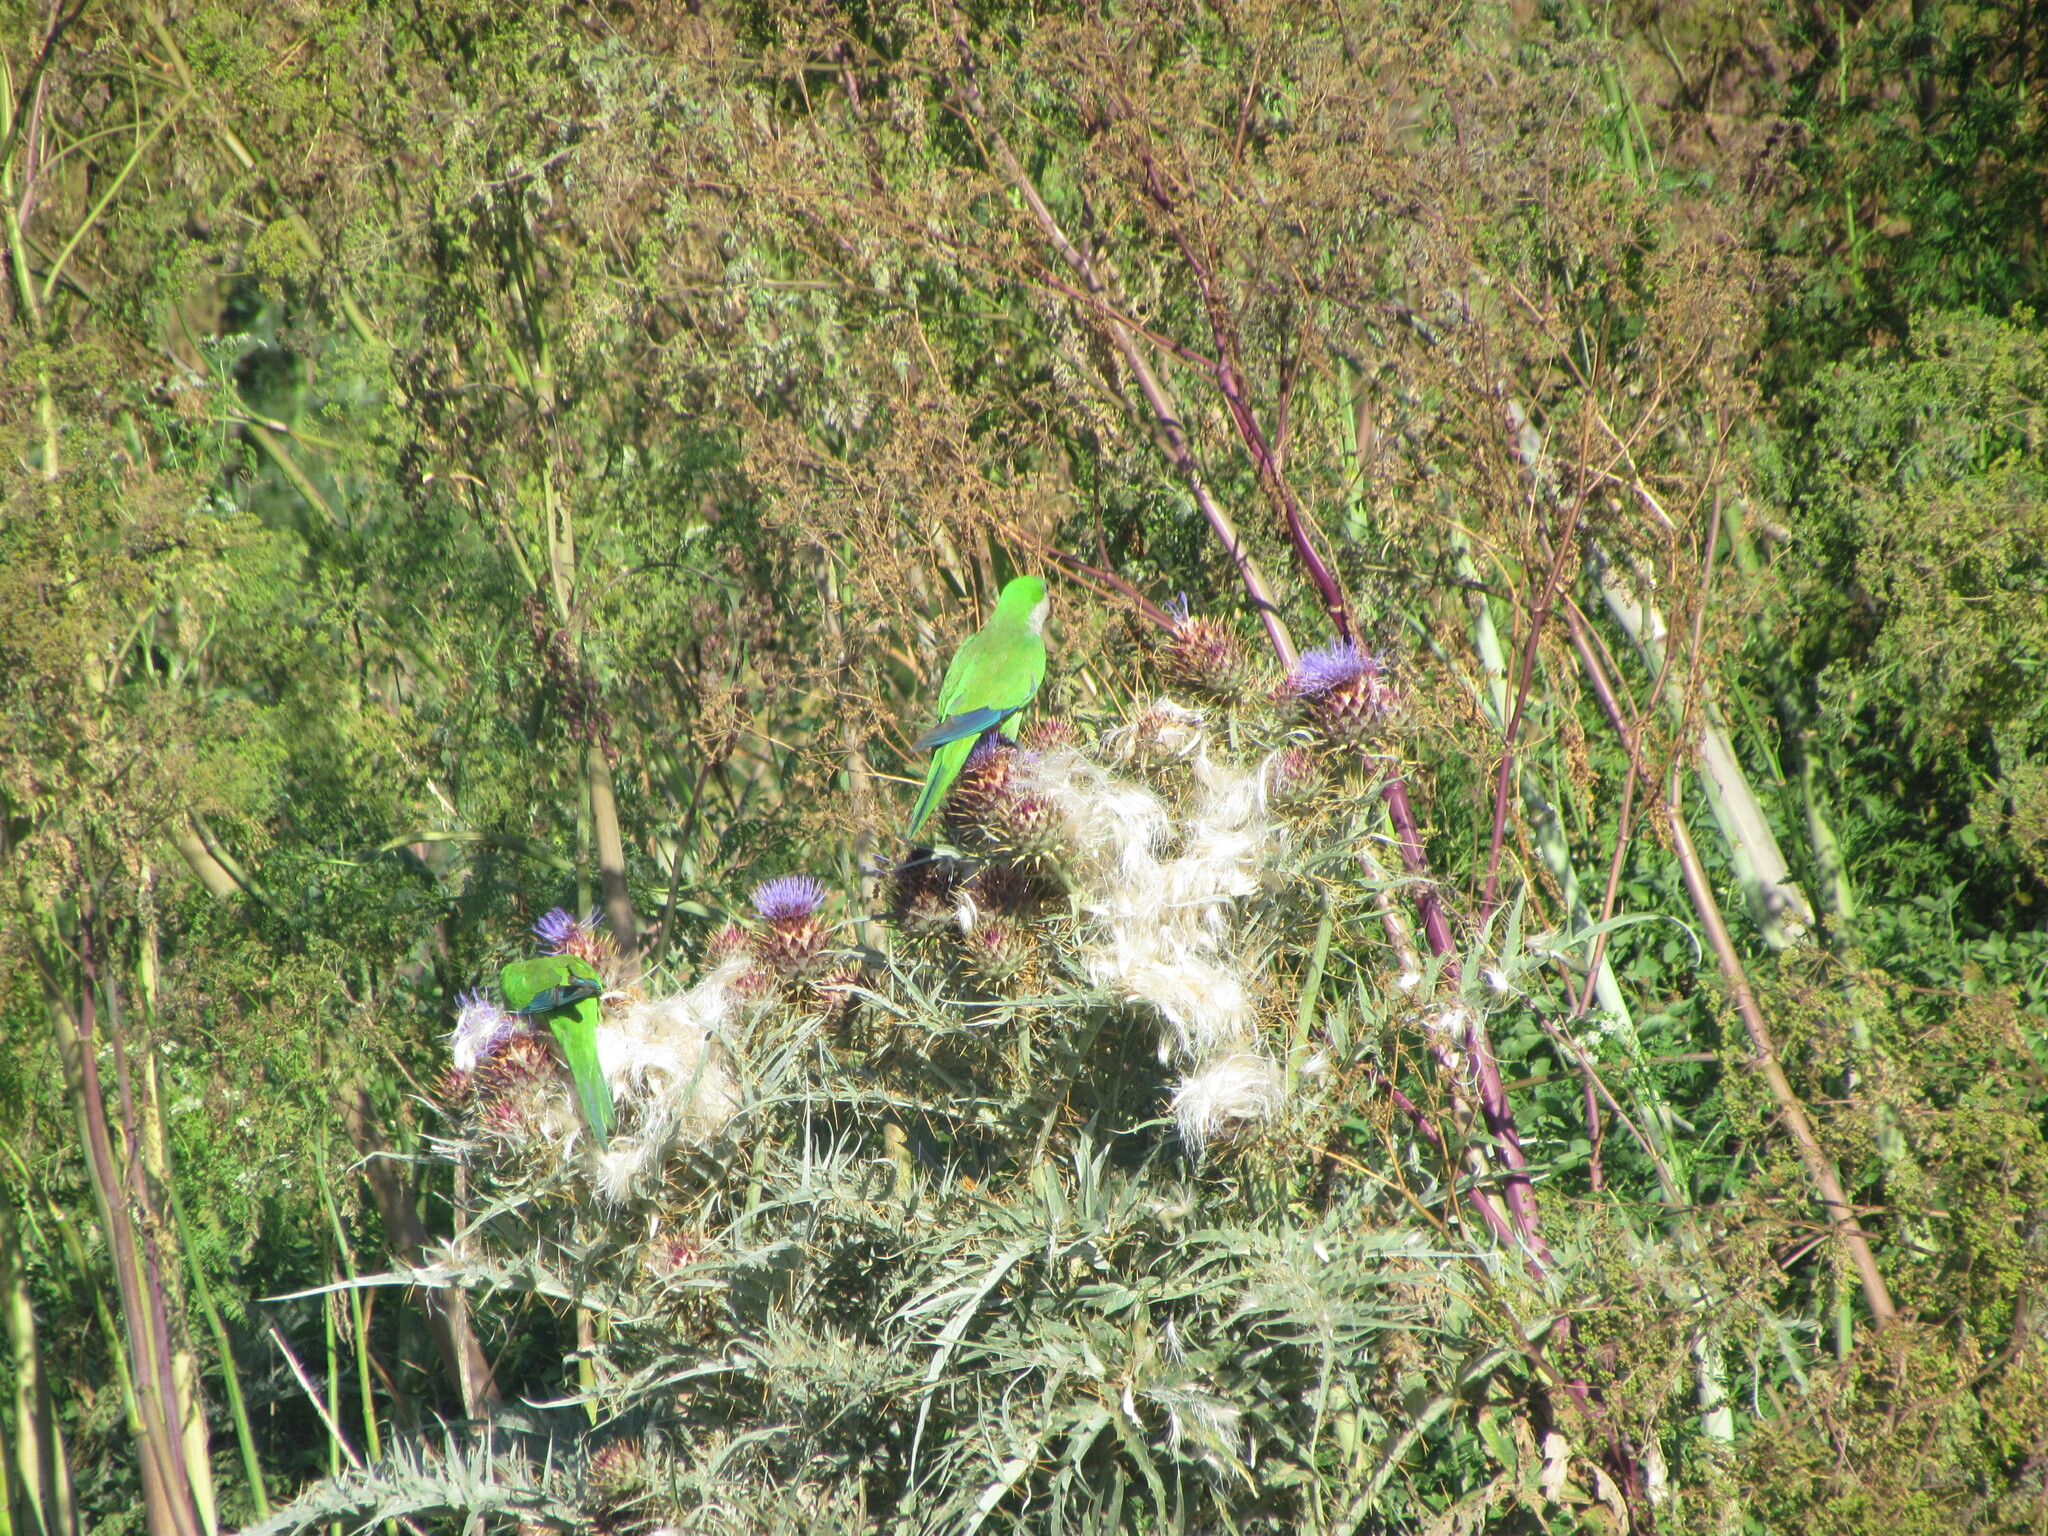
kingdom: Animalia
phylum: Chordata
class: Aves
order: Psittaciformes
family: Psittacidae
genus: Myiopsitta
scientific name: Myiopsitta monachus
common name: Monk parakeet
